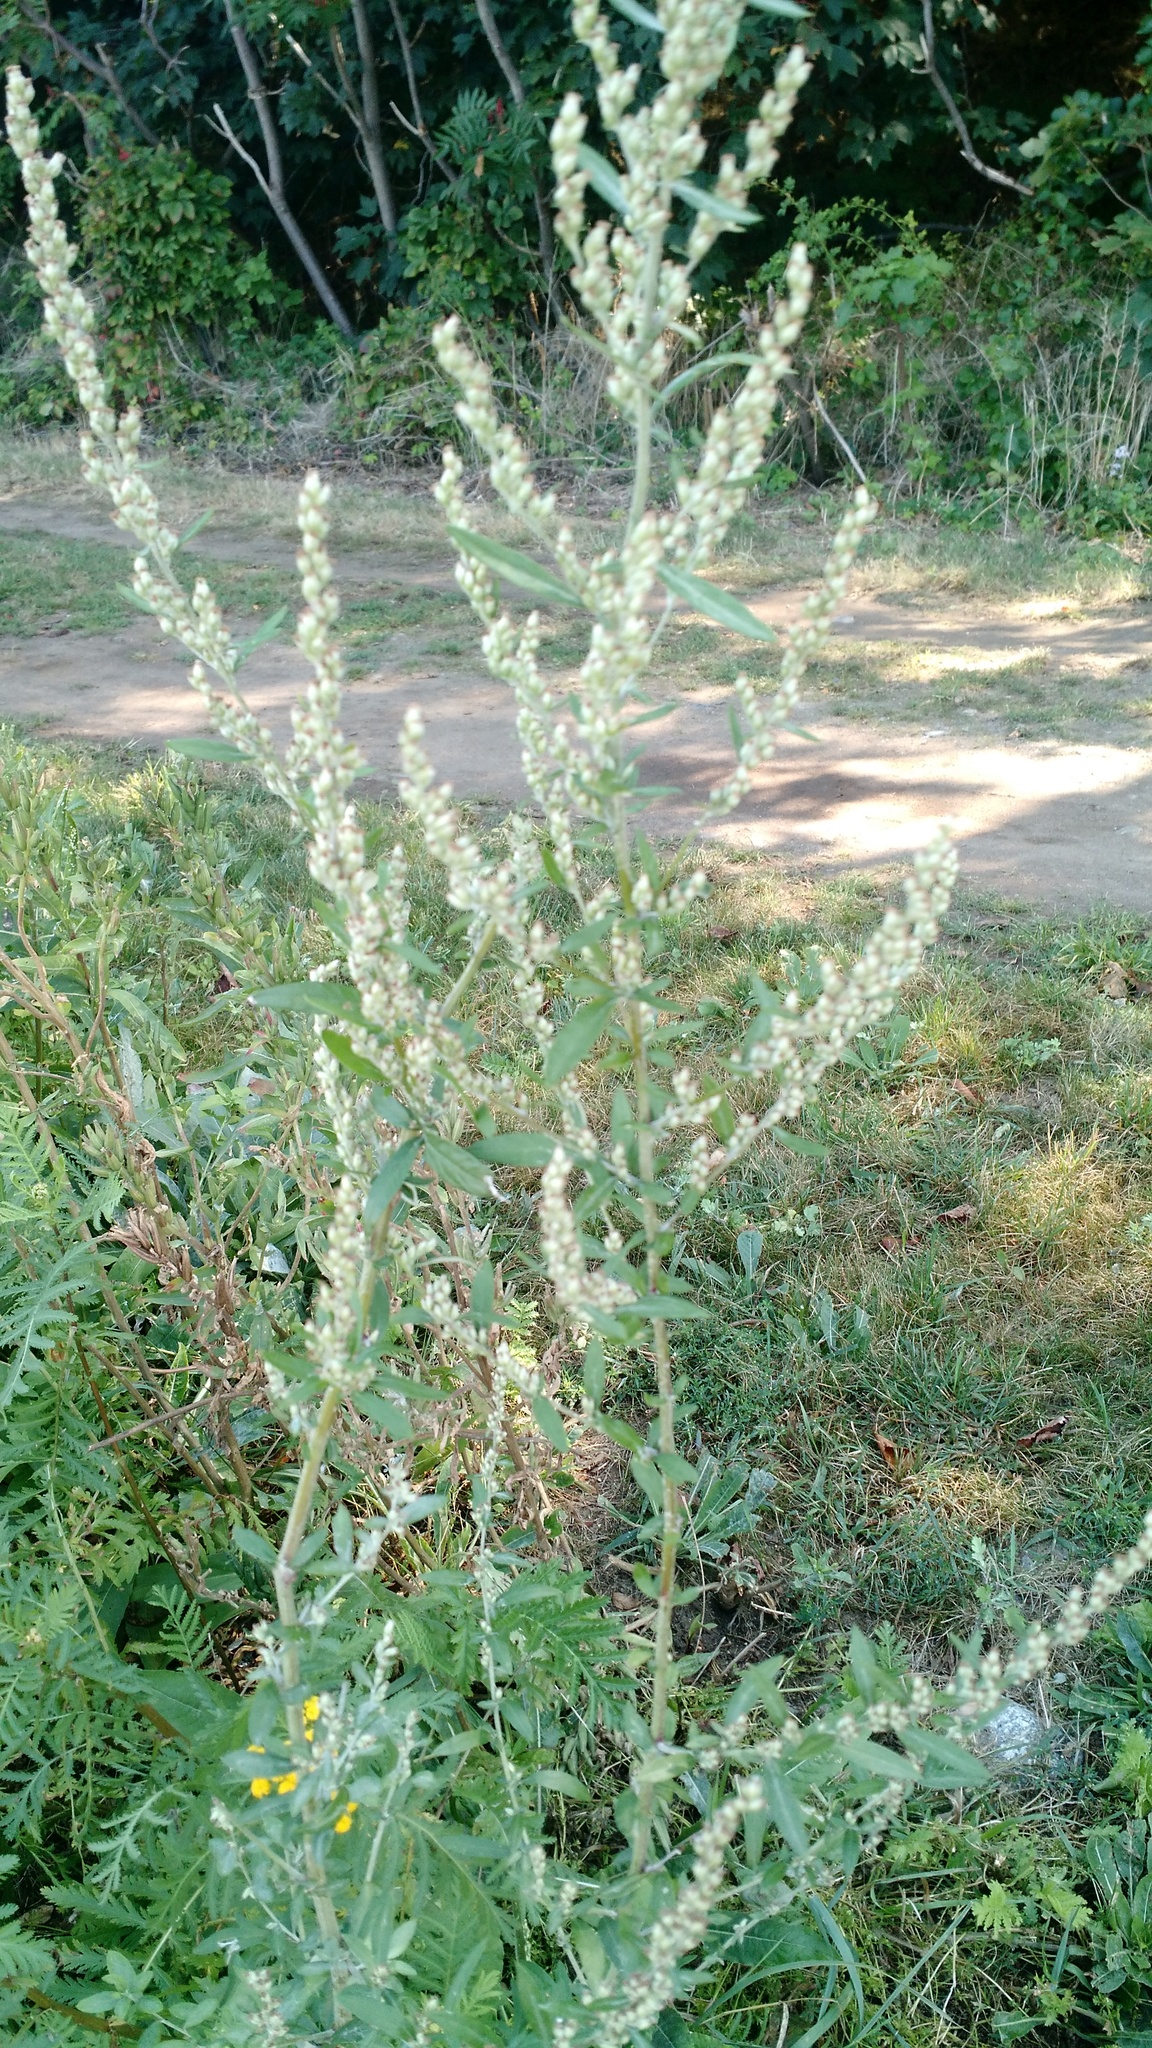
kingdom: Plantae
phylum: Tracheophyta
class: Magnoliopsida
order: Asterales
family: Asteraceae
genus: Artemisia
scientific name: Artemisia vulgaris
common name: Mugwort
